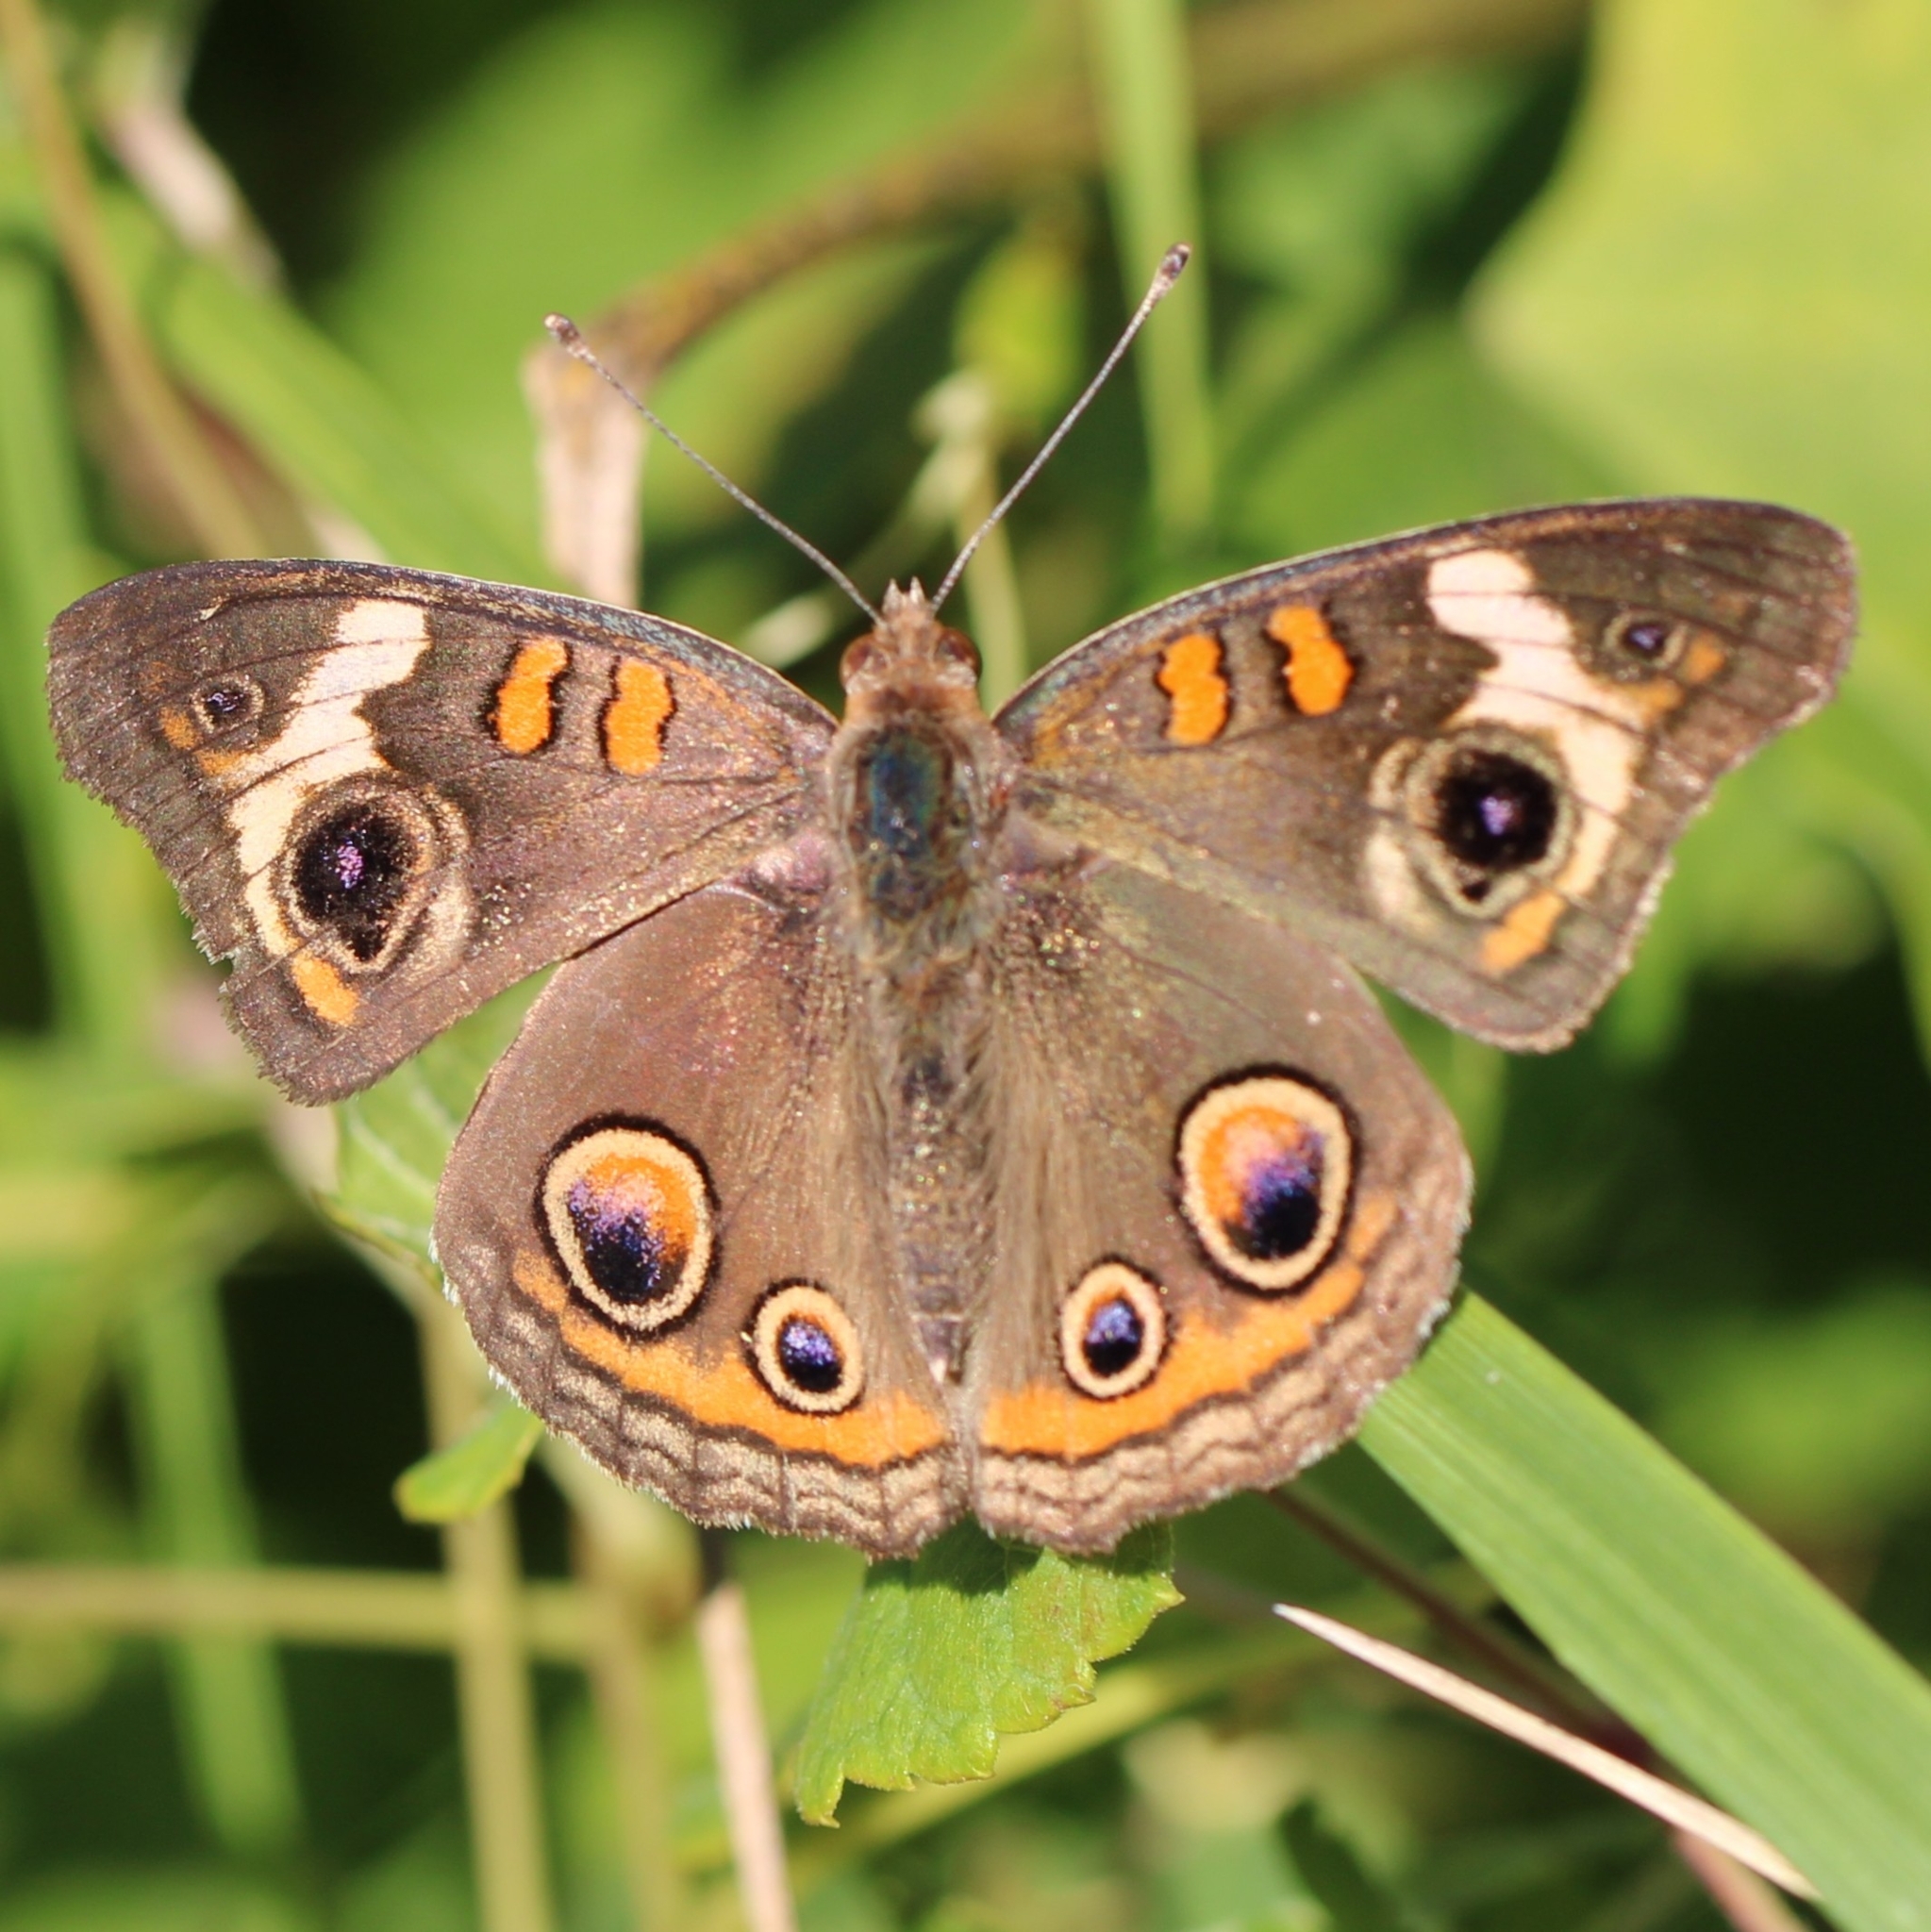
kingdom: Animalia
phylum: Arthropoda
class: Insecta
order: Lepidoptera
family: Nymphalidae
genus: Junonia
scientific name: Junonia coenia
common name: Common buckeye
